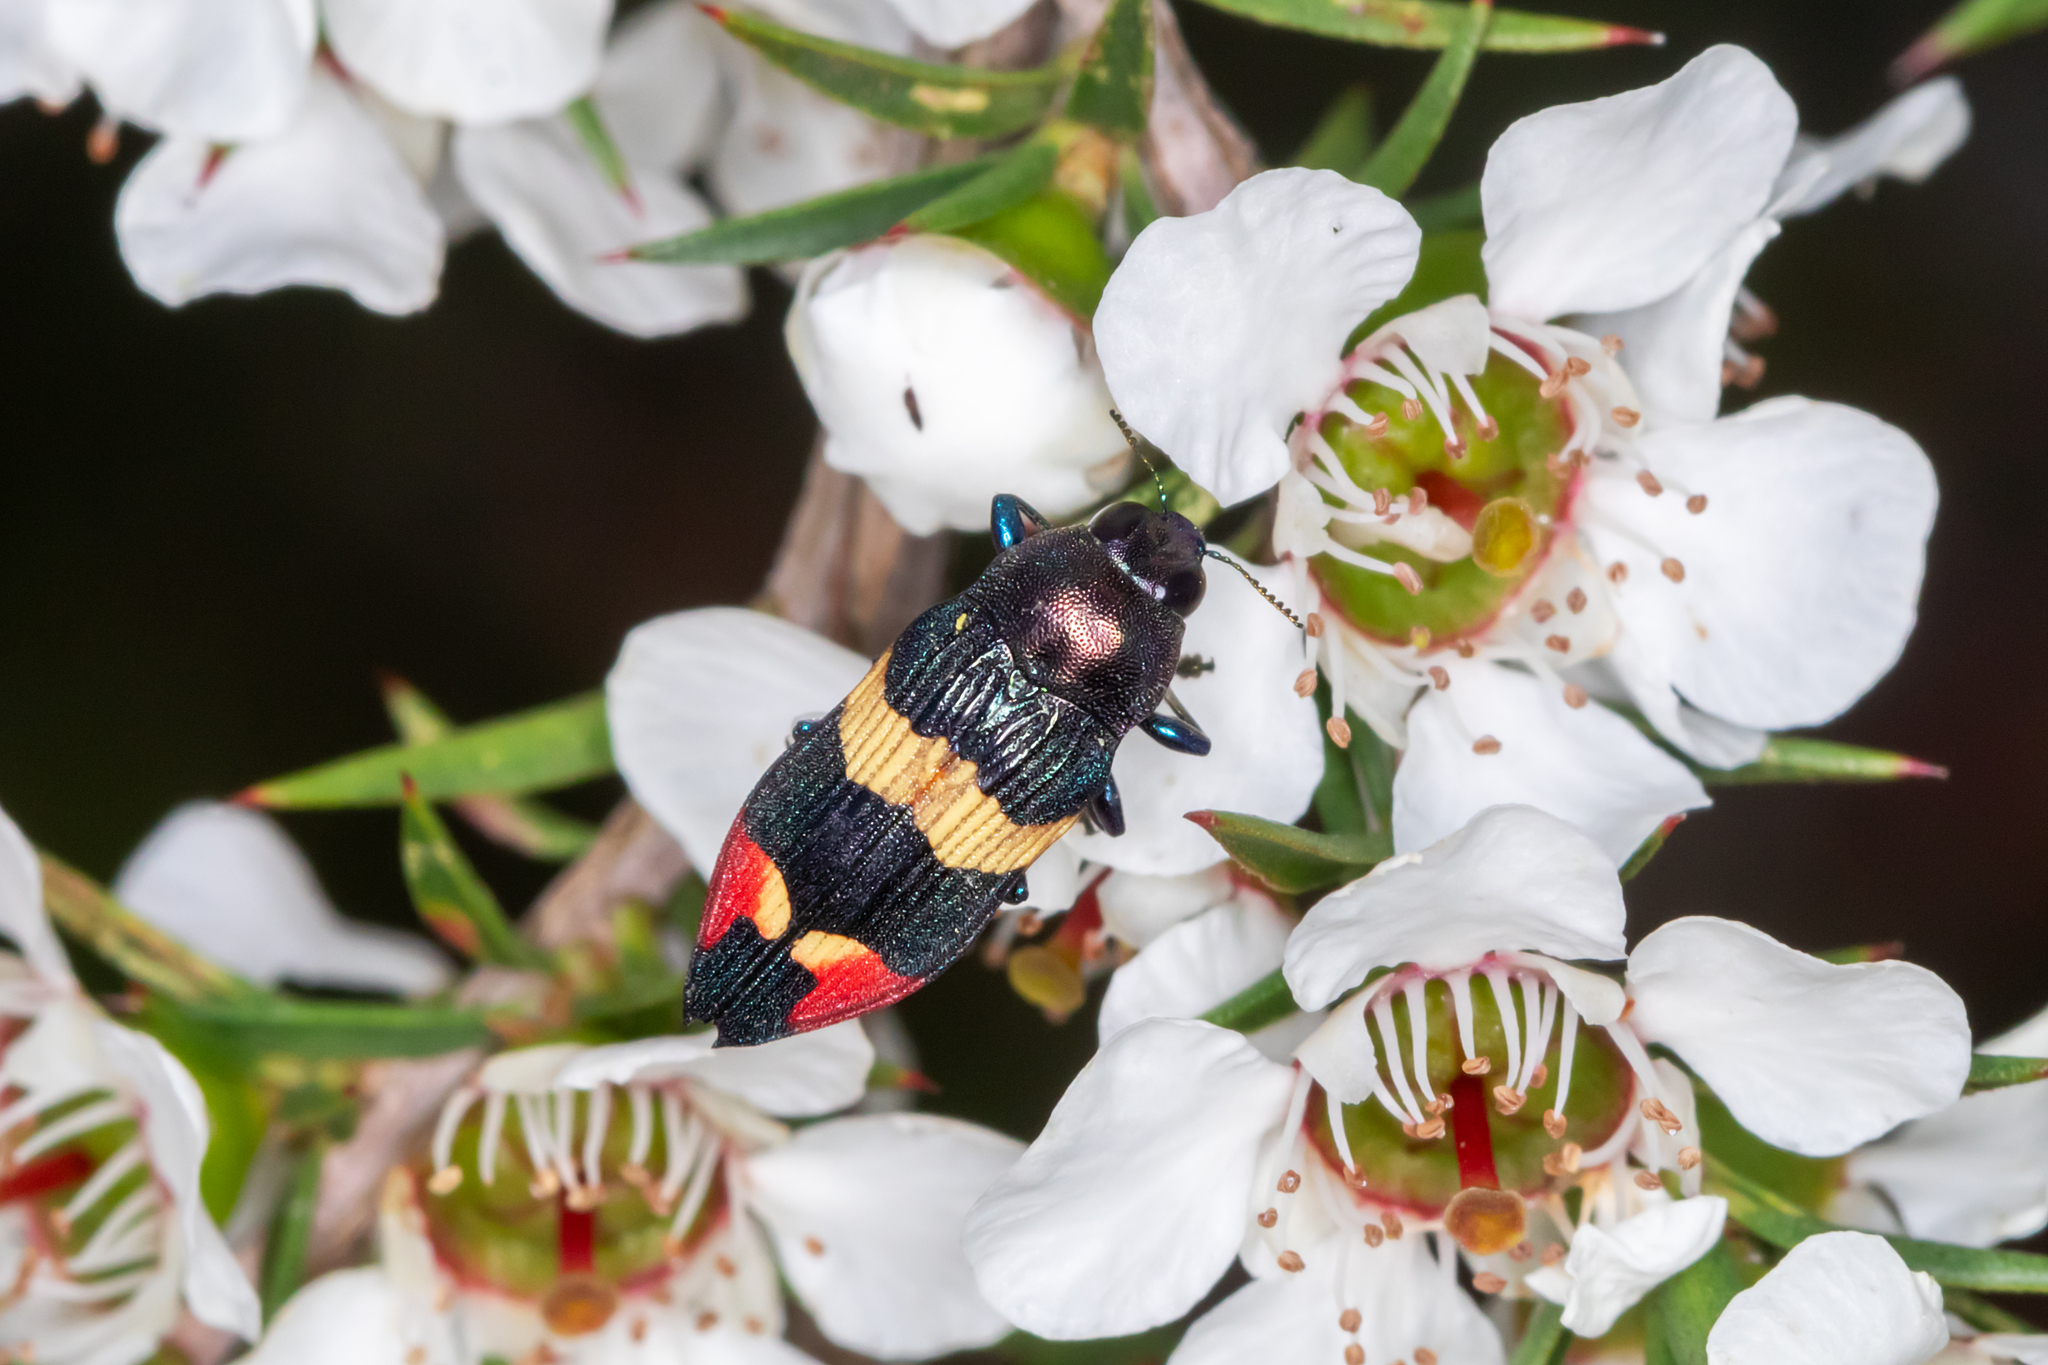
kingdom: Animalia
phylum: Arthropoda
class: Insecta
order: Coleoptera
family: Buprestidae
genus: Castiarina
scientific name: Castiarina bella
